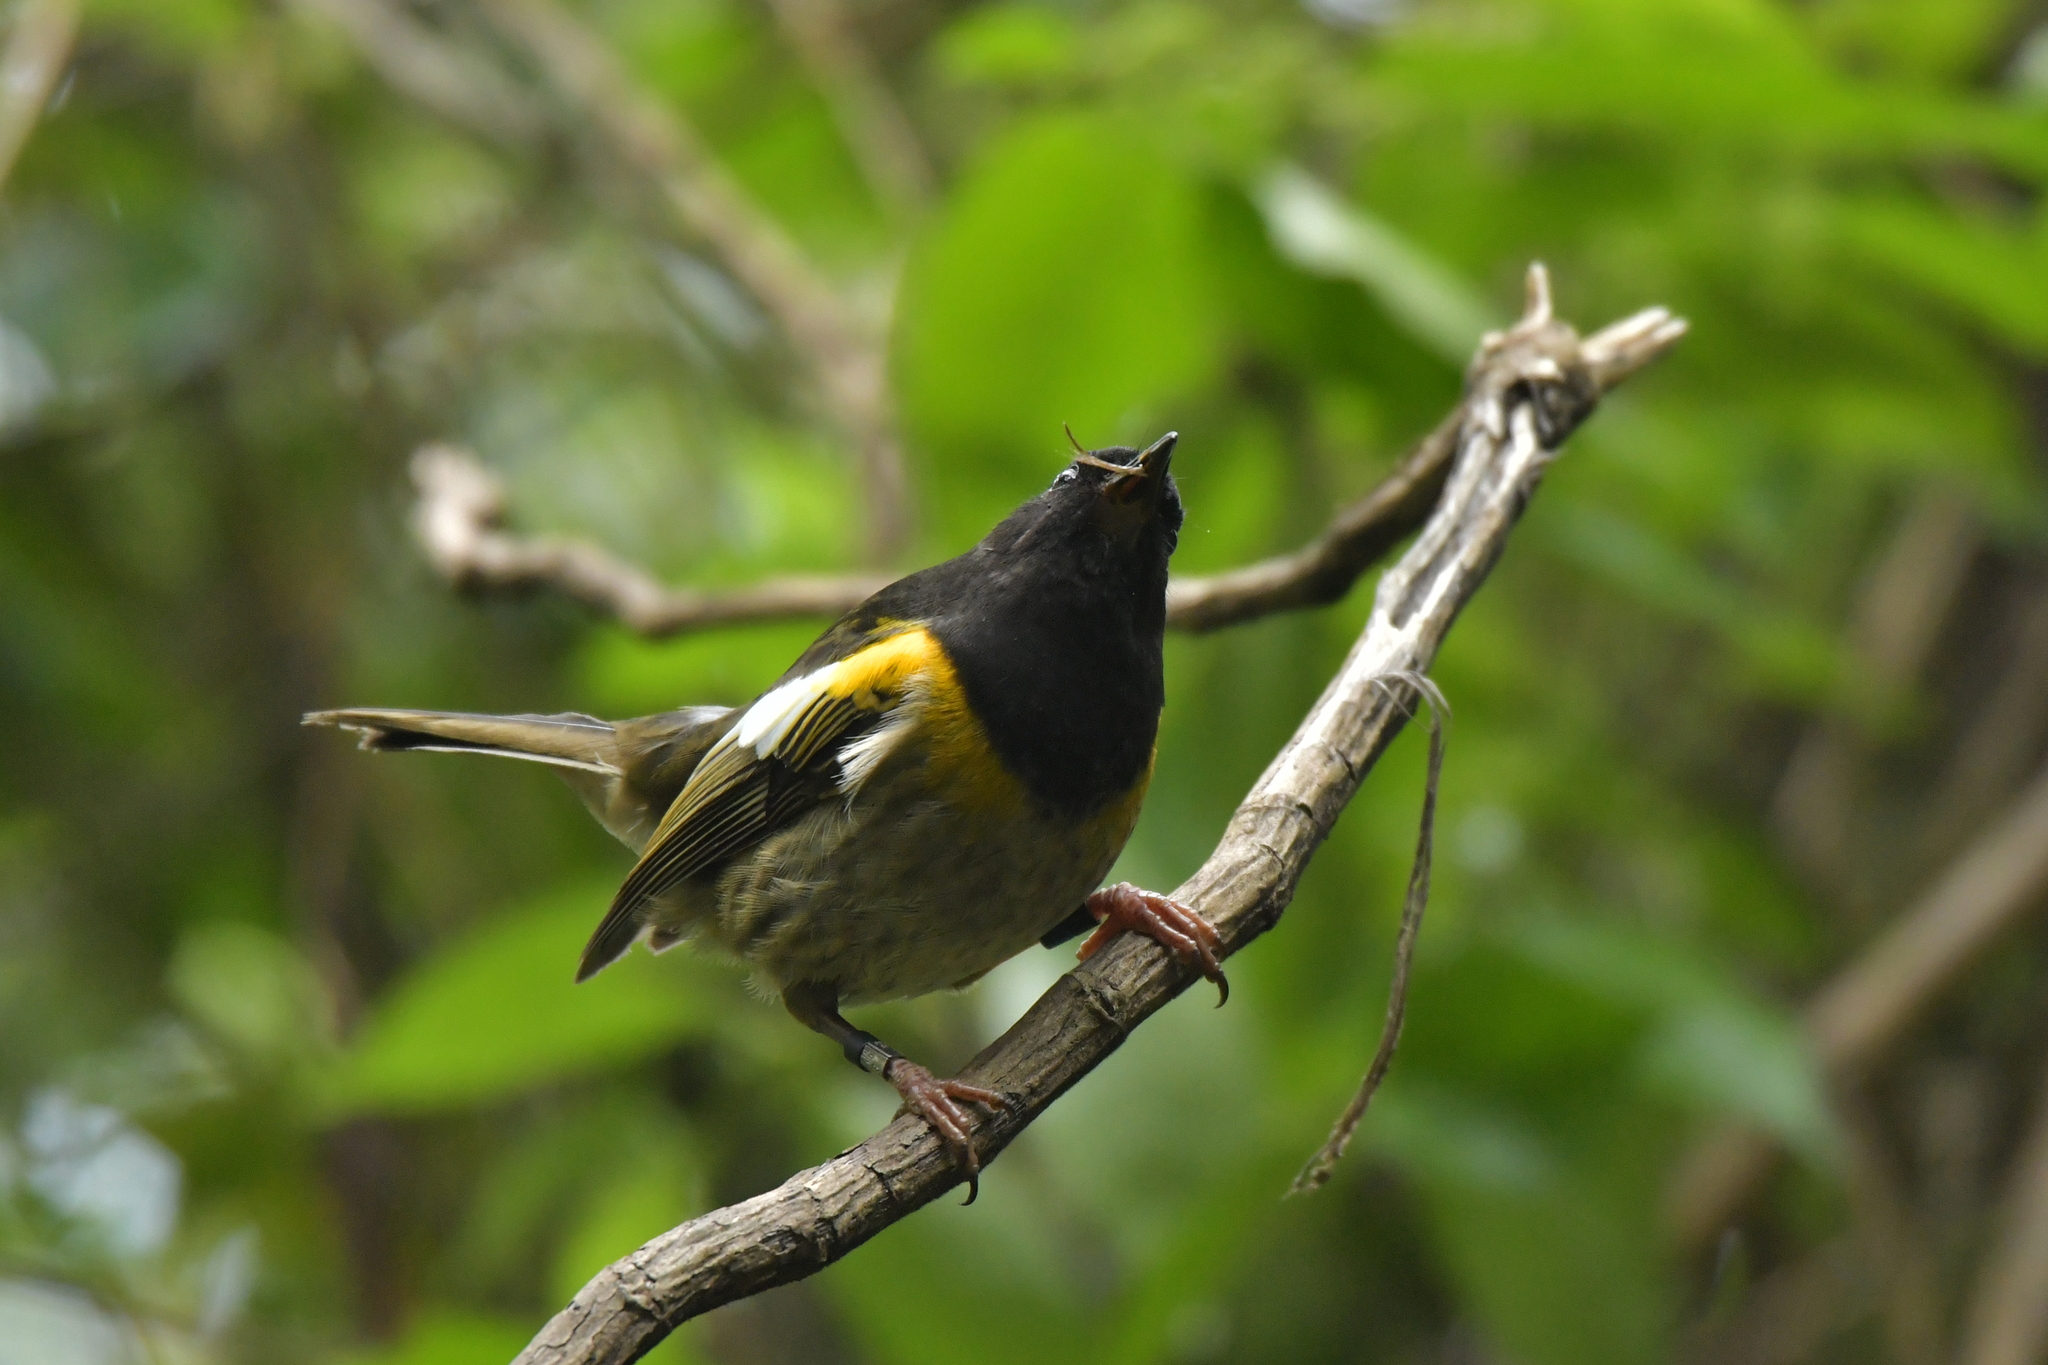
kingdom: Animalia
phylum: Chordata
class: Aves
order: Passeriformes
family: Notiomystidae
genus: Notiomystis
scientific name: Notiomystis cincta
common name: Stitchbird
